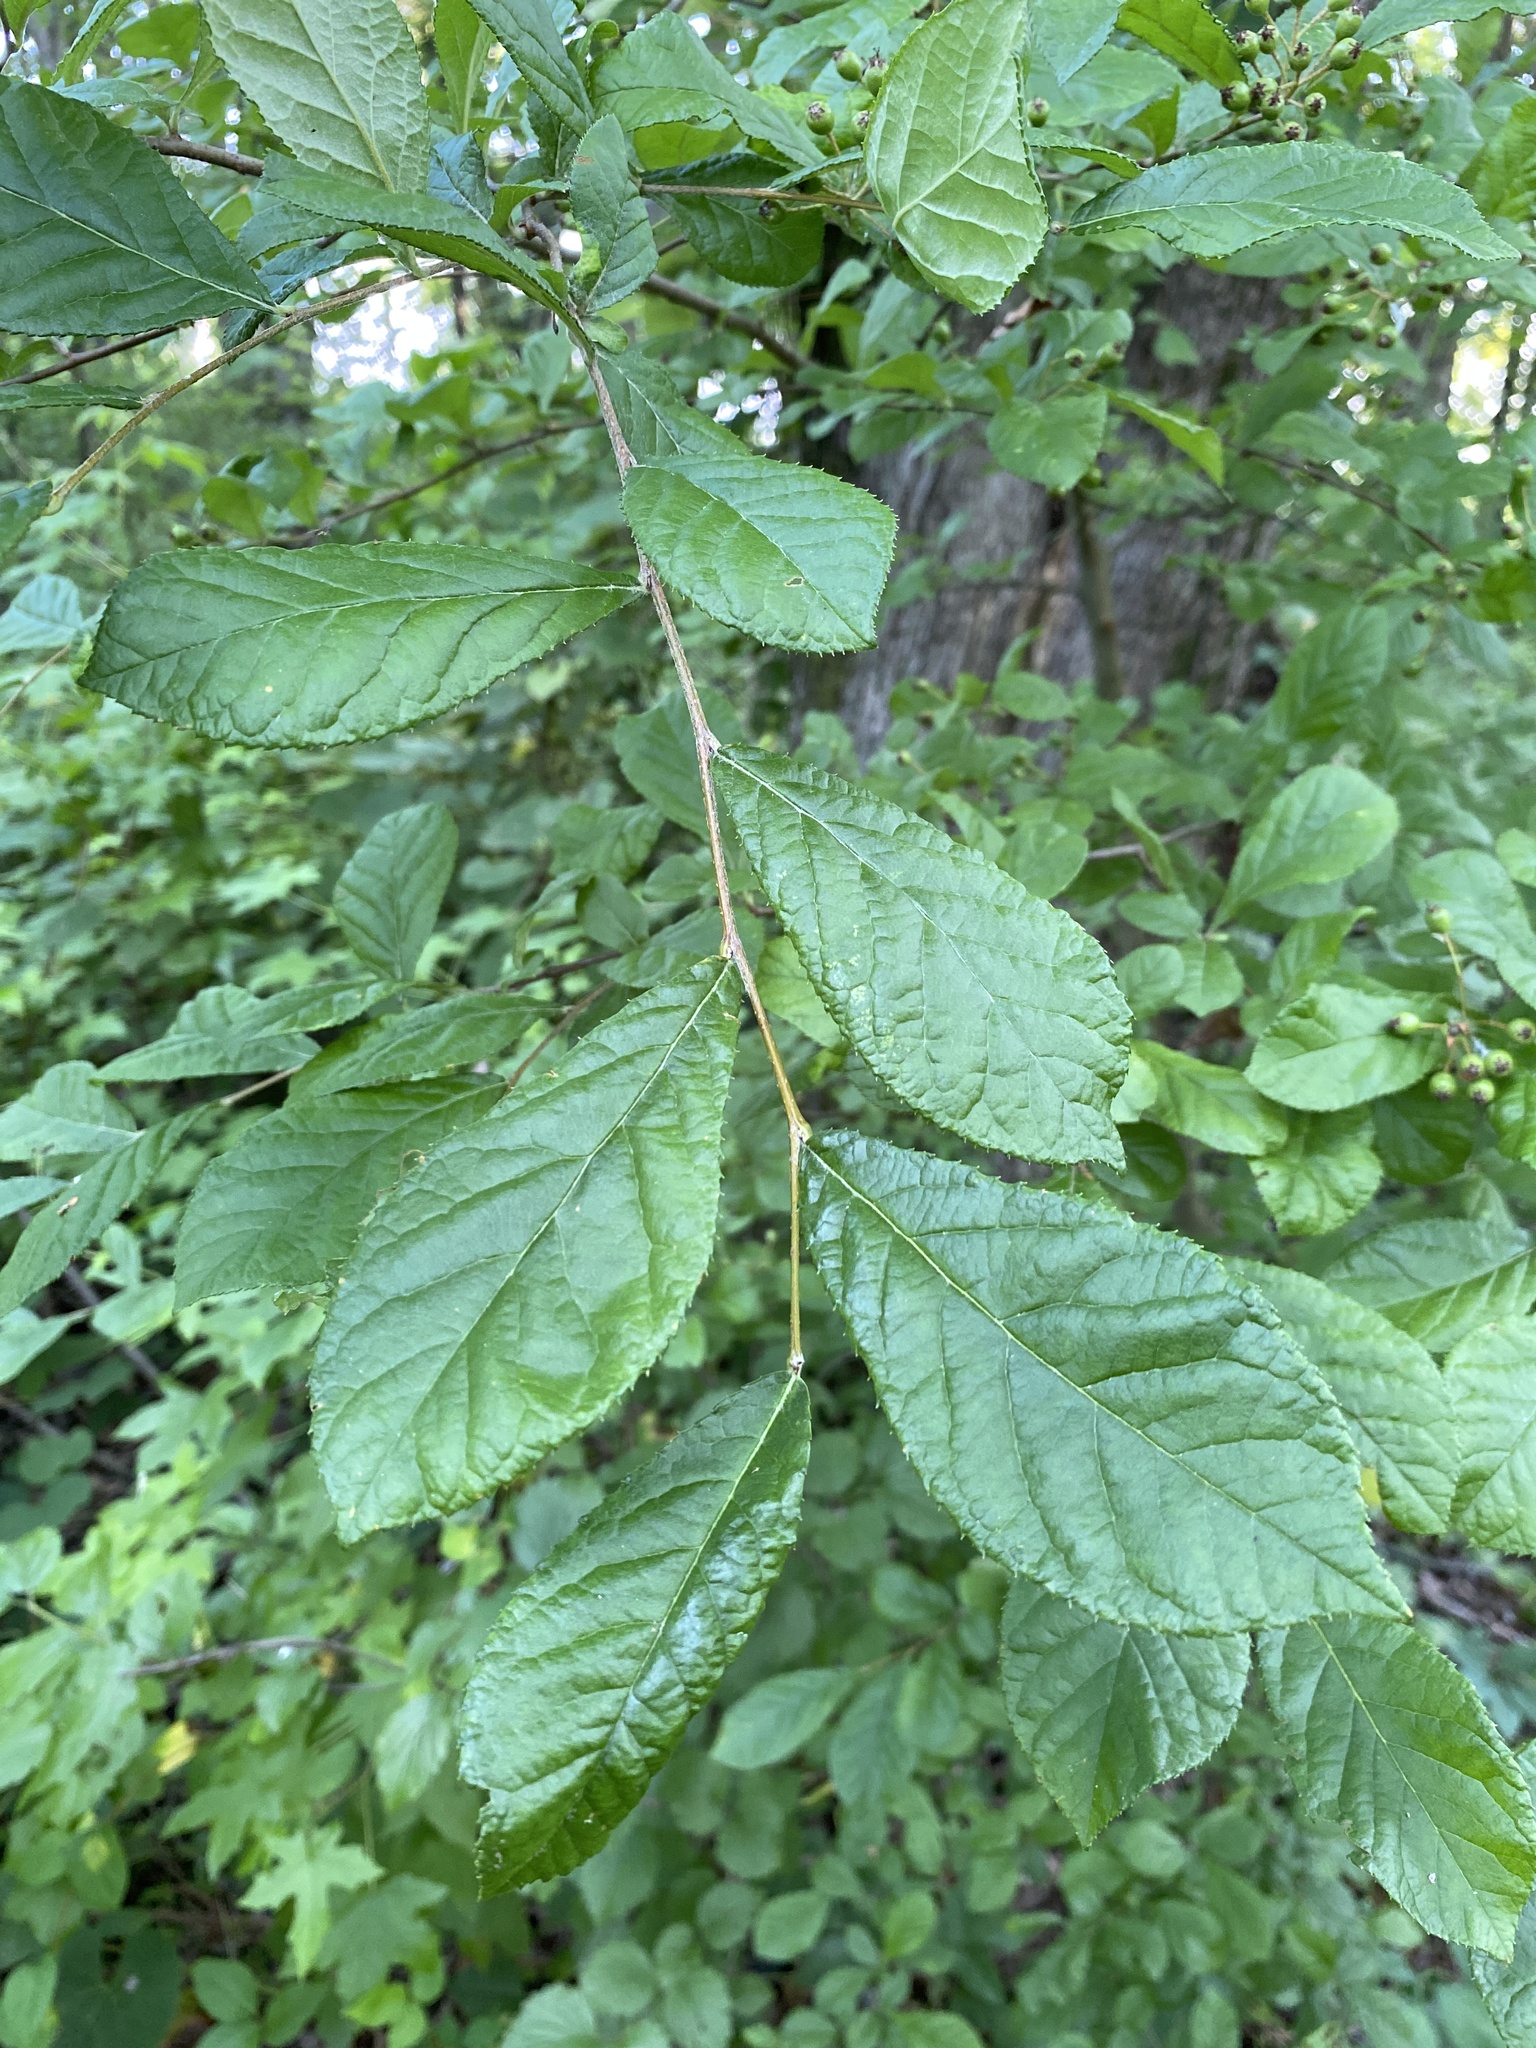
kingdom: Plantae
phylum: Tracheophyta
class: Magnoliopsida
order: Rosales
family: Rosaceae
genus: Pourthiaea
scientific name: Pourthiaea villosa
